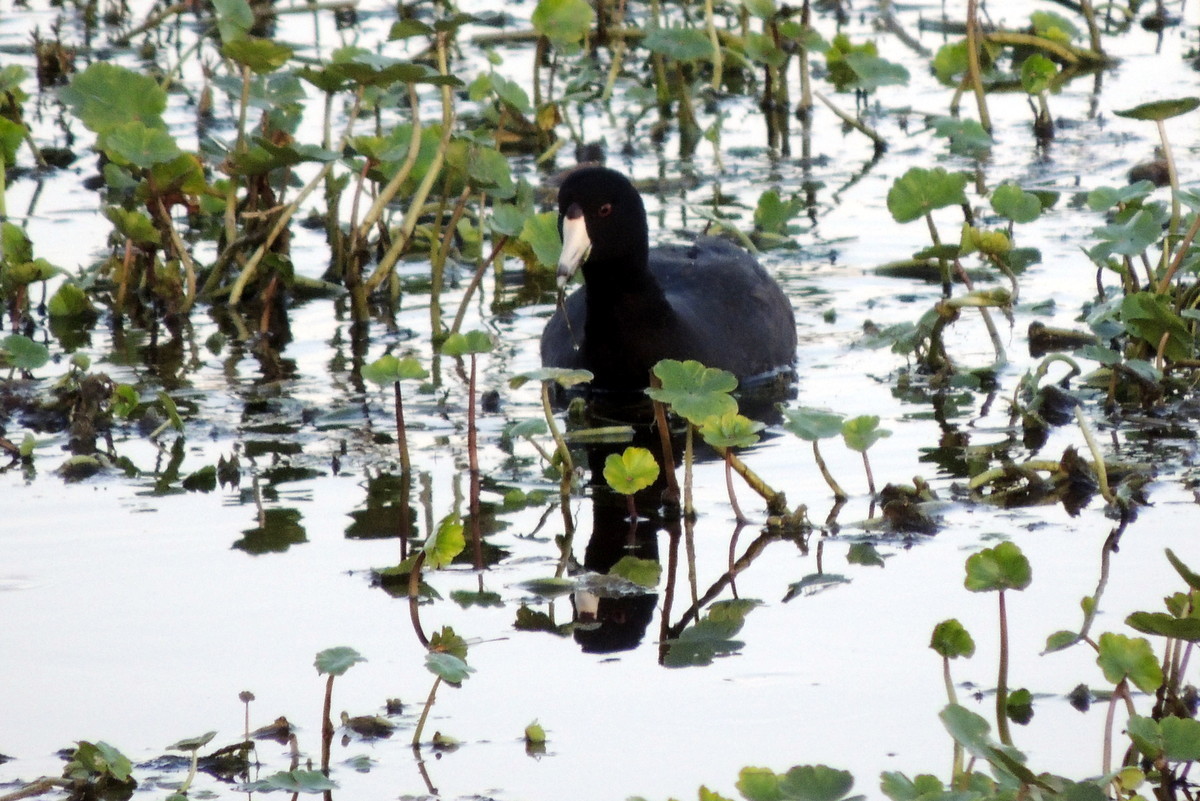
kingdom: Animalia
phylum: Chordata
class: Aves
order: Gruiformes
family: Rallidae
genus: Fulica
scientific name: Fulica americana
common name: American coot
